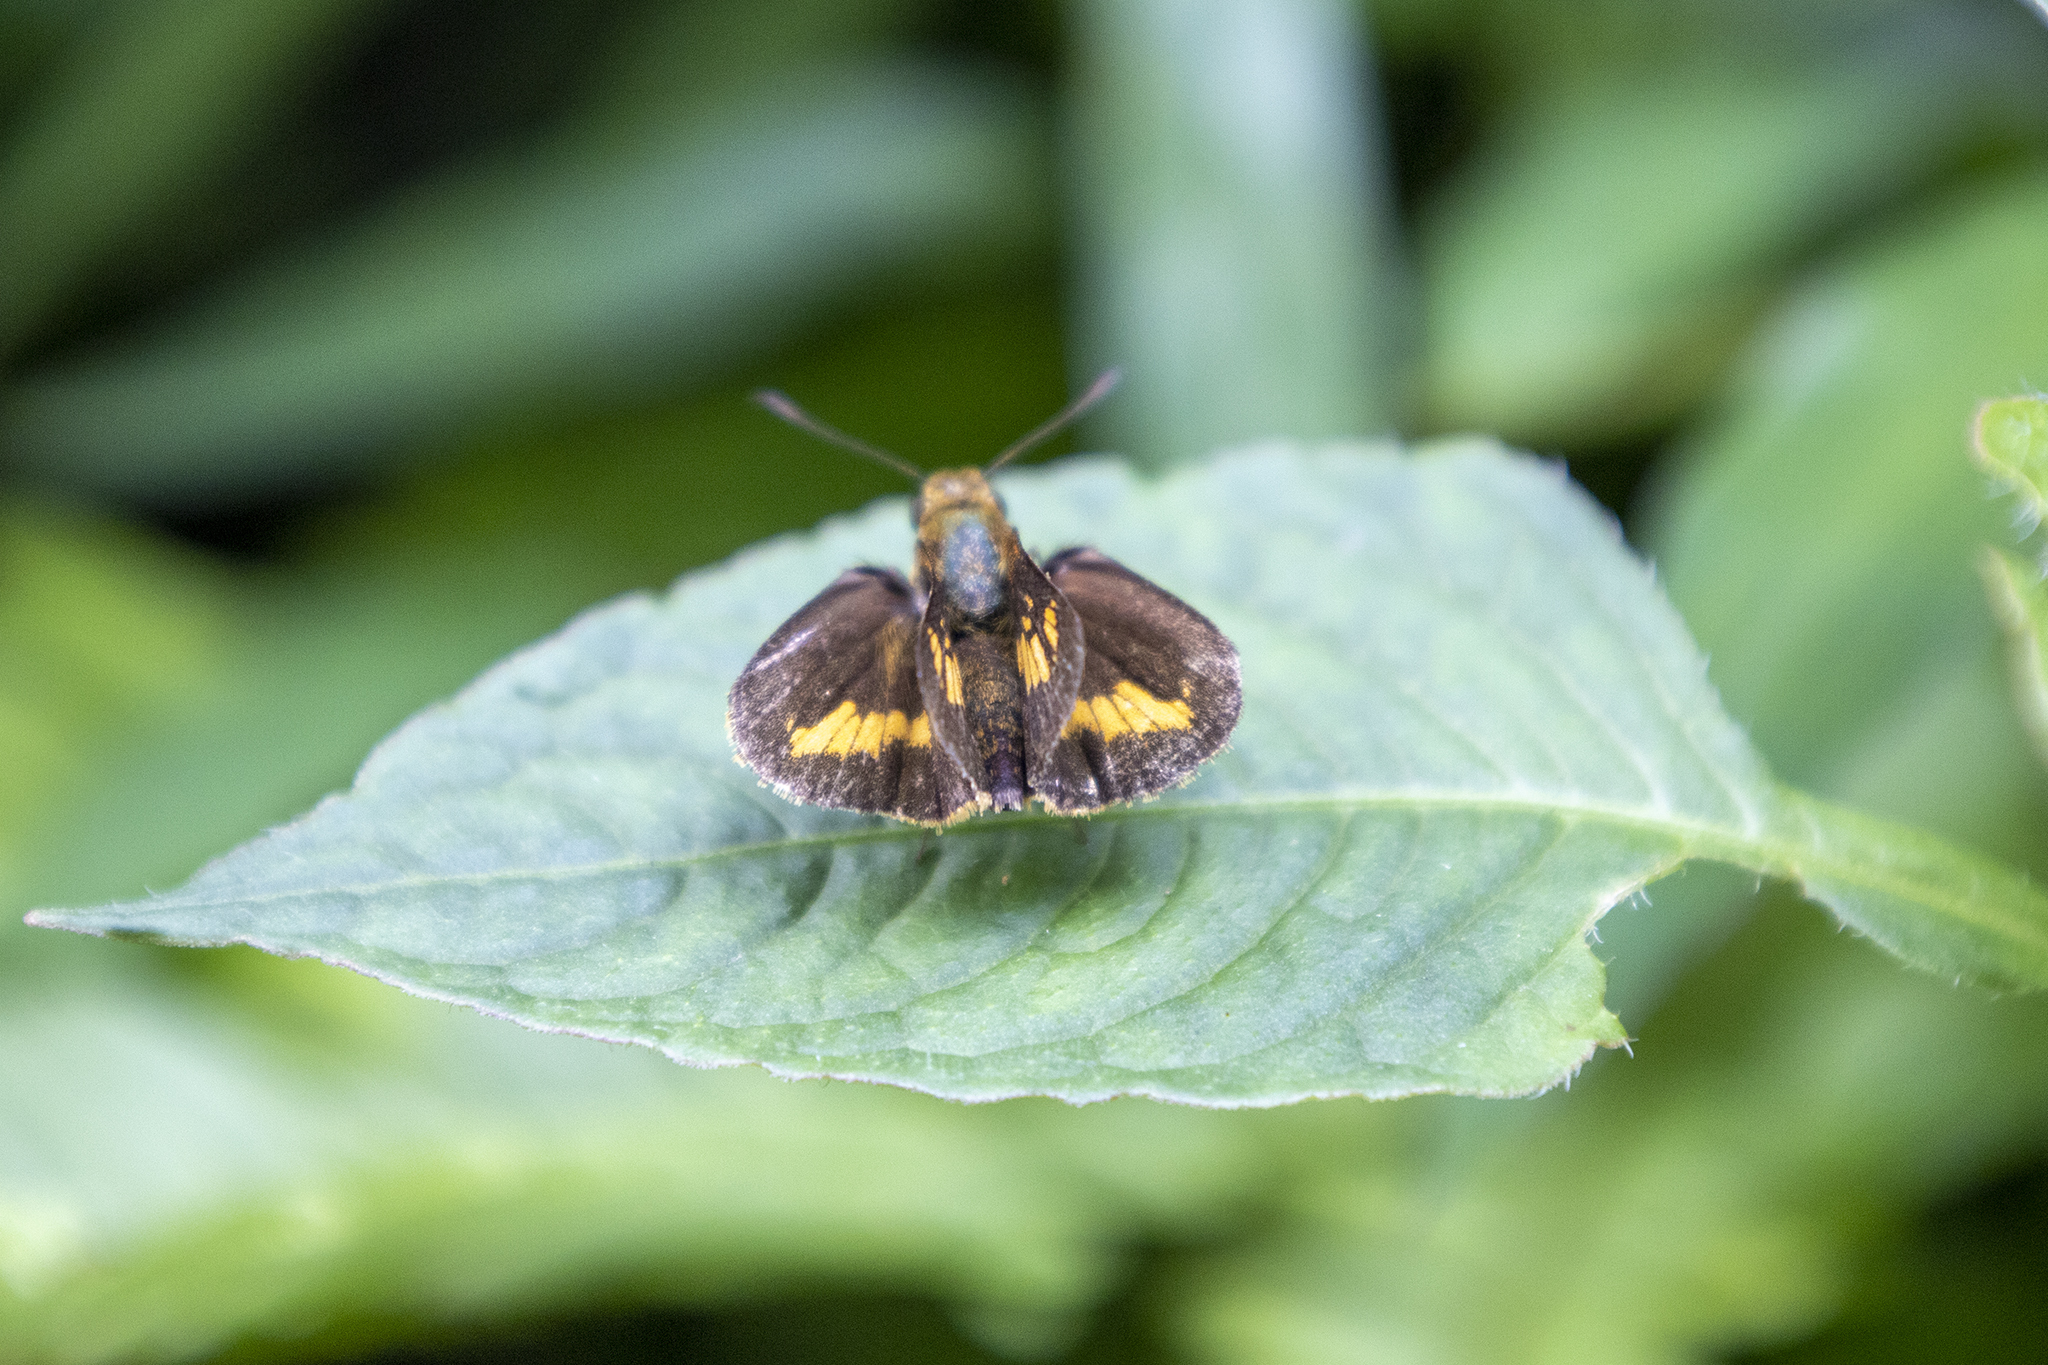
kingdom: Animalia
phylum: Arthropoda
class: Insecta
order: Lepidoptera
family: Hesperiidae
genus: Oriens
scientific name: Oriens goloides
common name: Smaller dartlet
